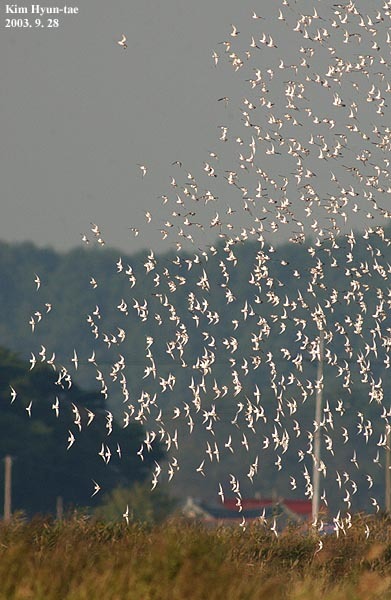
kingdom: Animalia
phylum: Chordata
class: Aves
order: Charadriiformes
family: Scolopacidae
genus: Calidris
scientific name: Calidris alpina
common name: Dunlin
